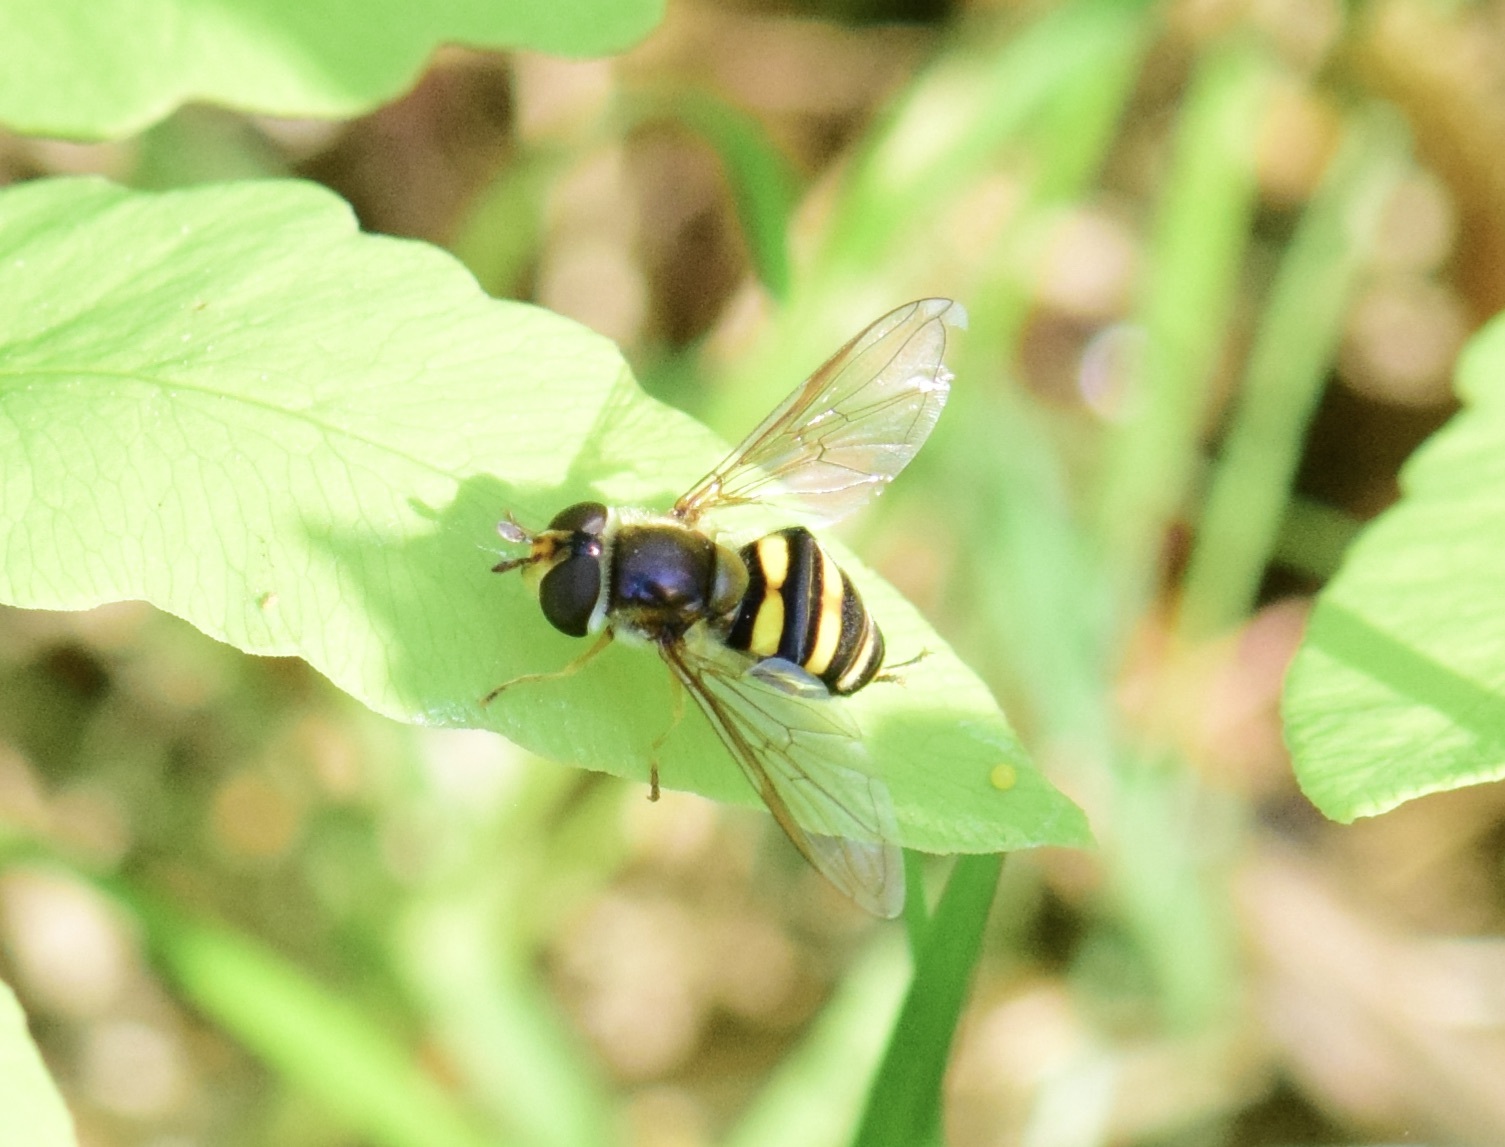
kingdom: Animalia
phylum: Arthropoda
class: Insecta
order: Diptera
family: Syrphidae
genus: Eupeodes
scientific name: Eupeodes
